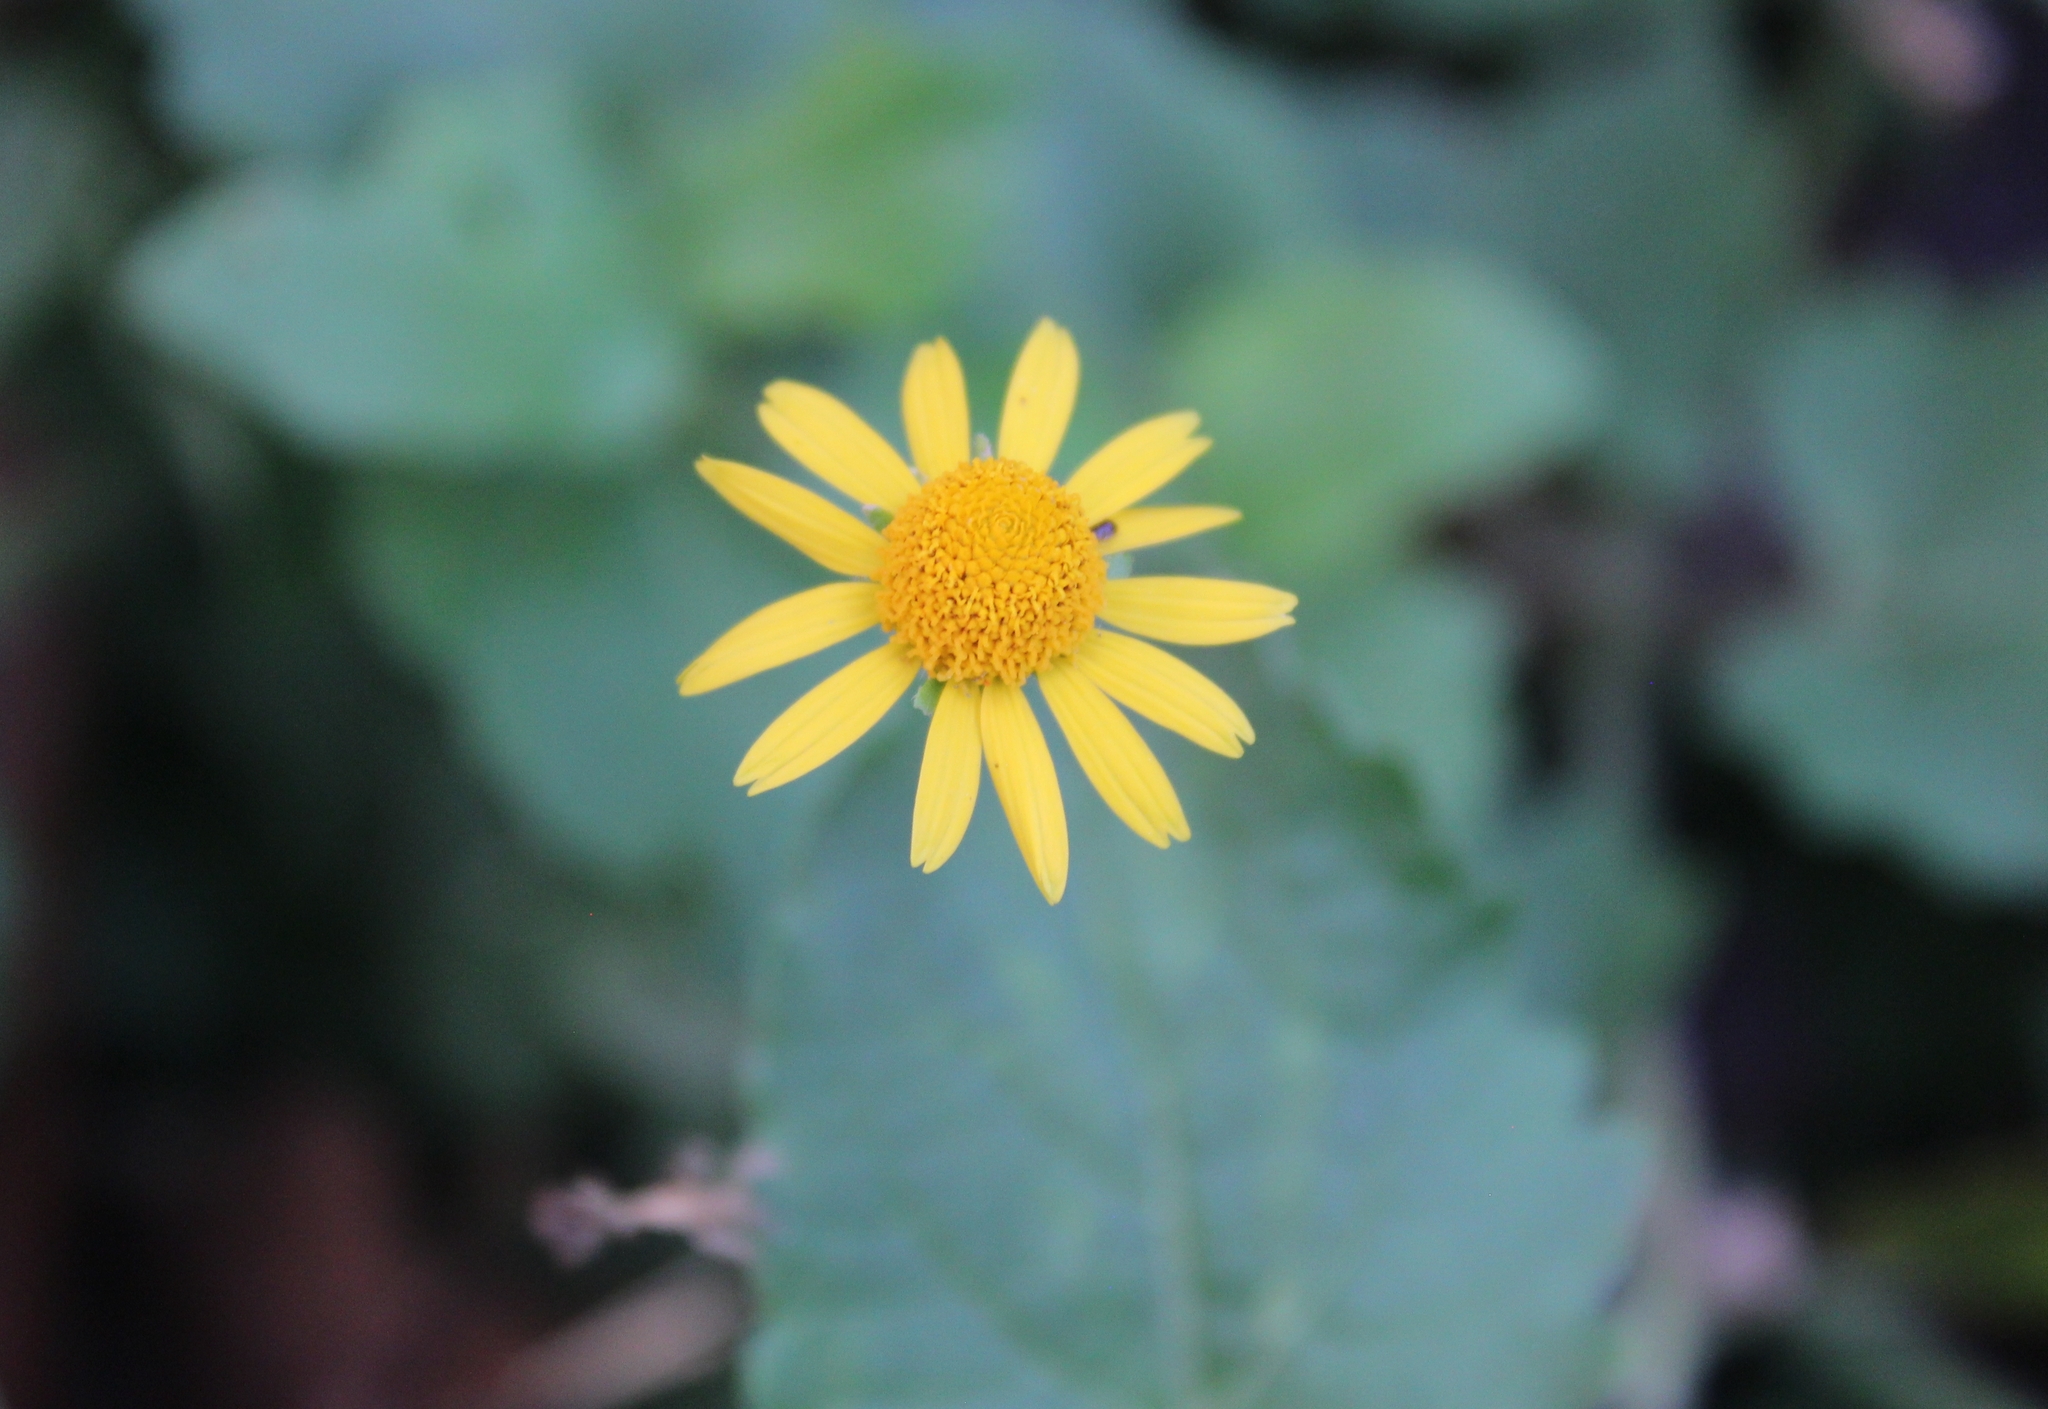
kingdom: Plantae
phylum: Tracheophyta
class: Magnoliopsida
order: Asterales
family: Asteraceae
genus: Acmella
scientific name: Acmella repens
